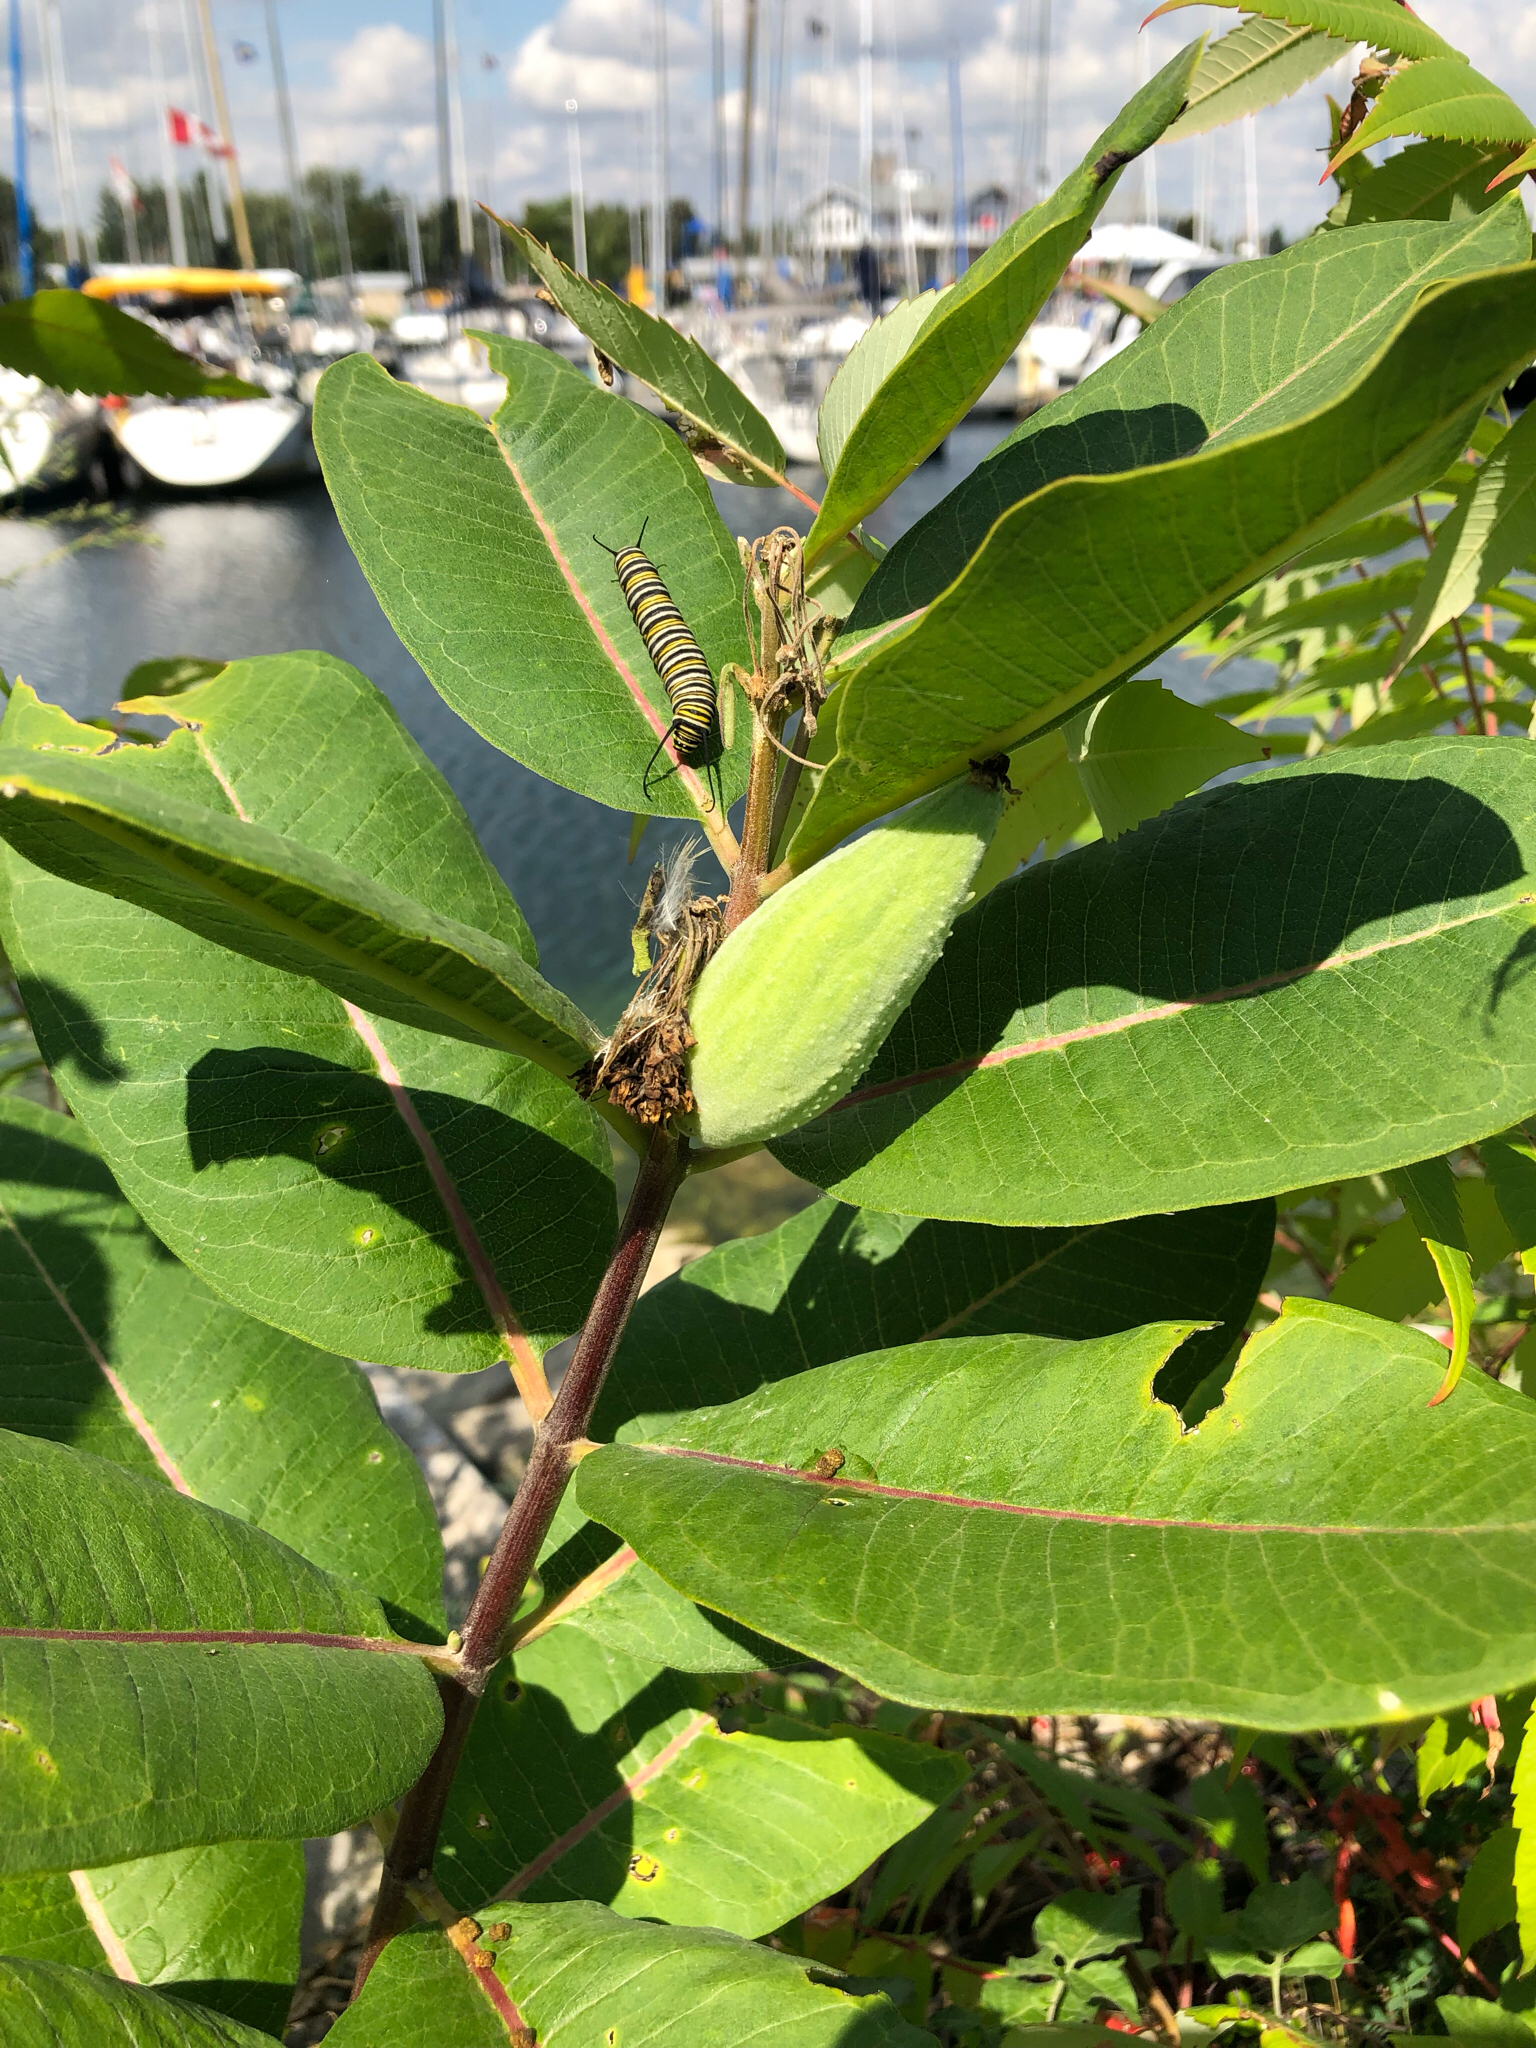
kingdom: Plantae
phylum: Tracheophyta
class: Magnoliopsida
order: Gentianales
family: Apocynaceae
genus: Asclepias
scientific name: Asclepias syriaca
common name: Common milkweed
